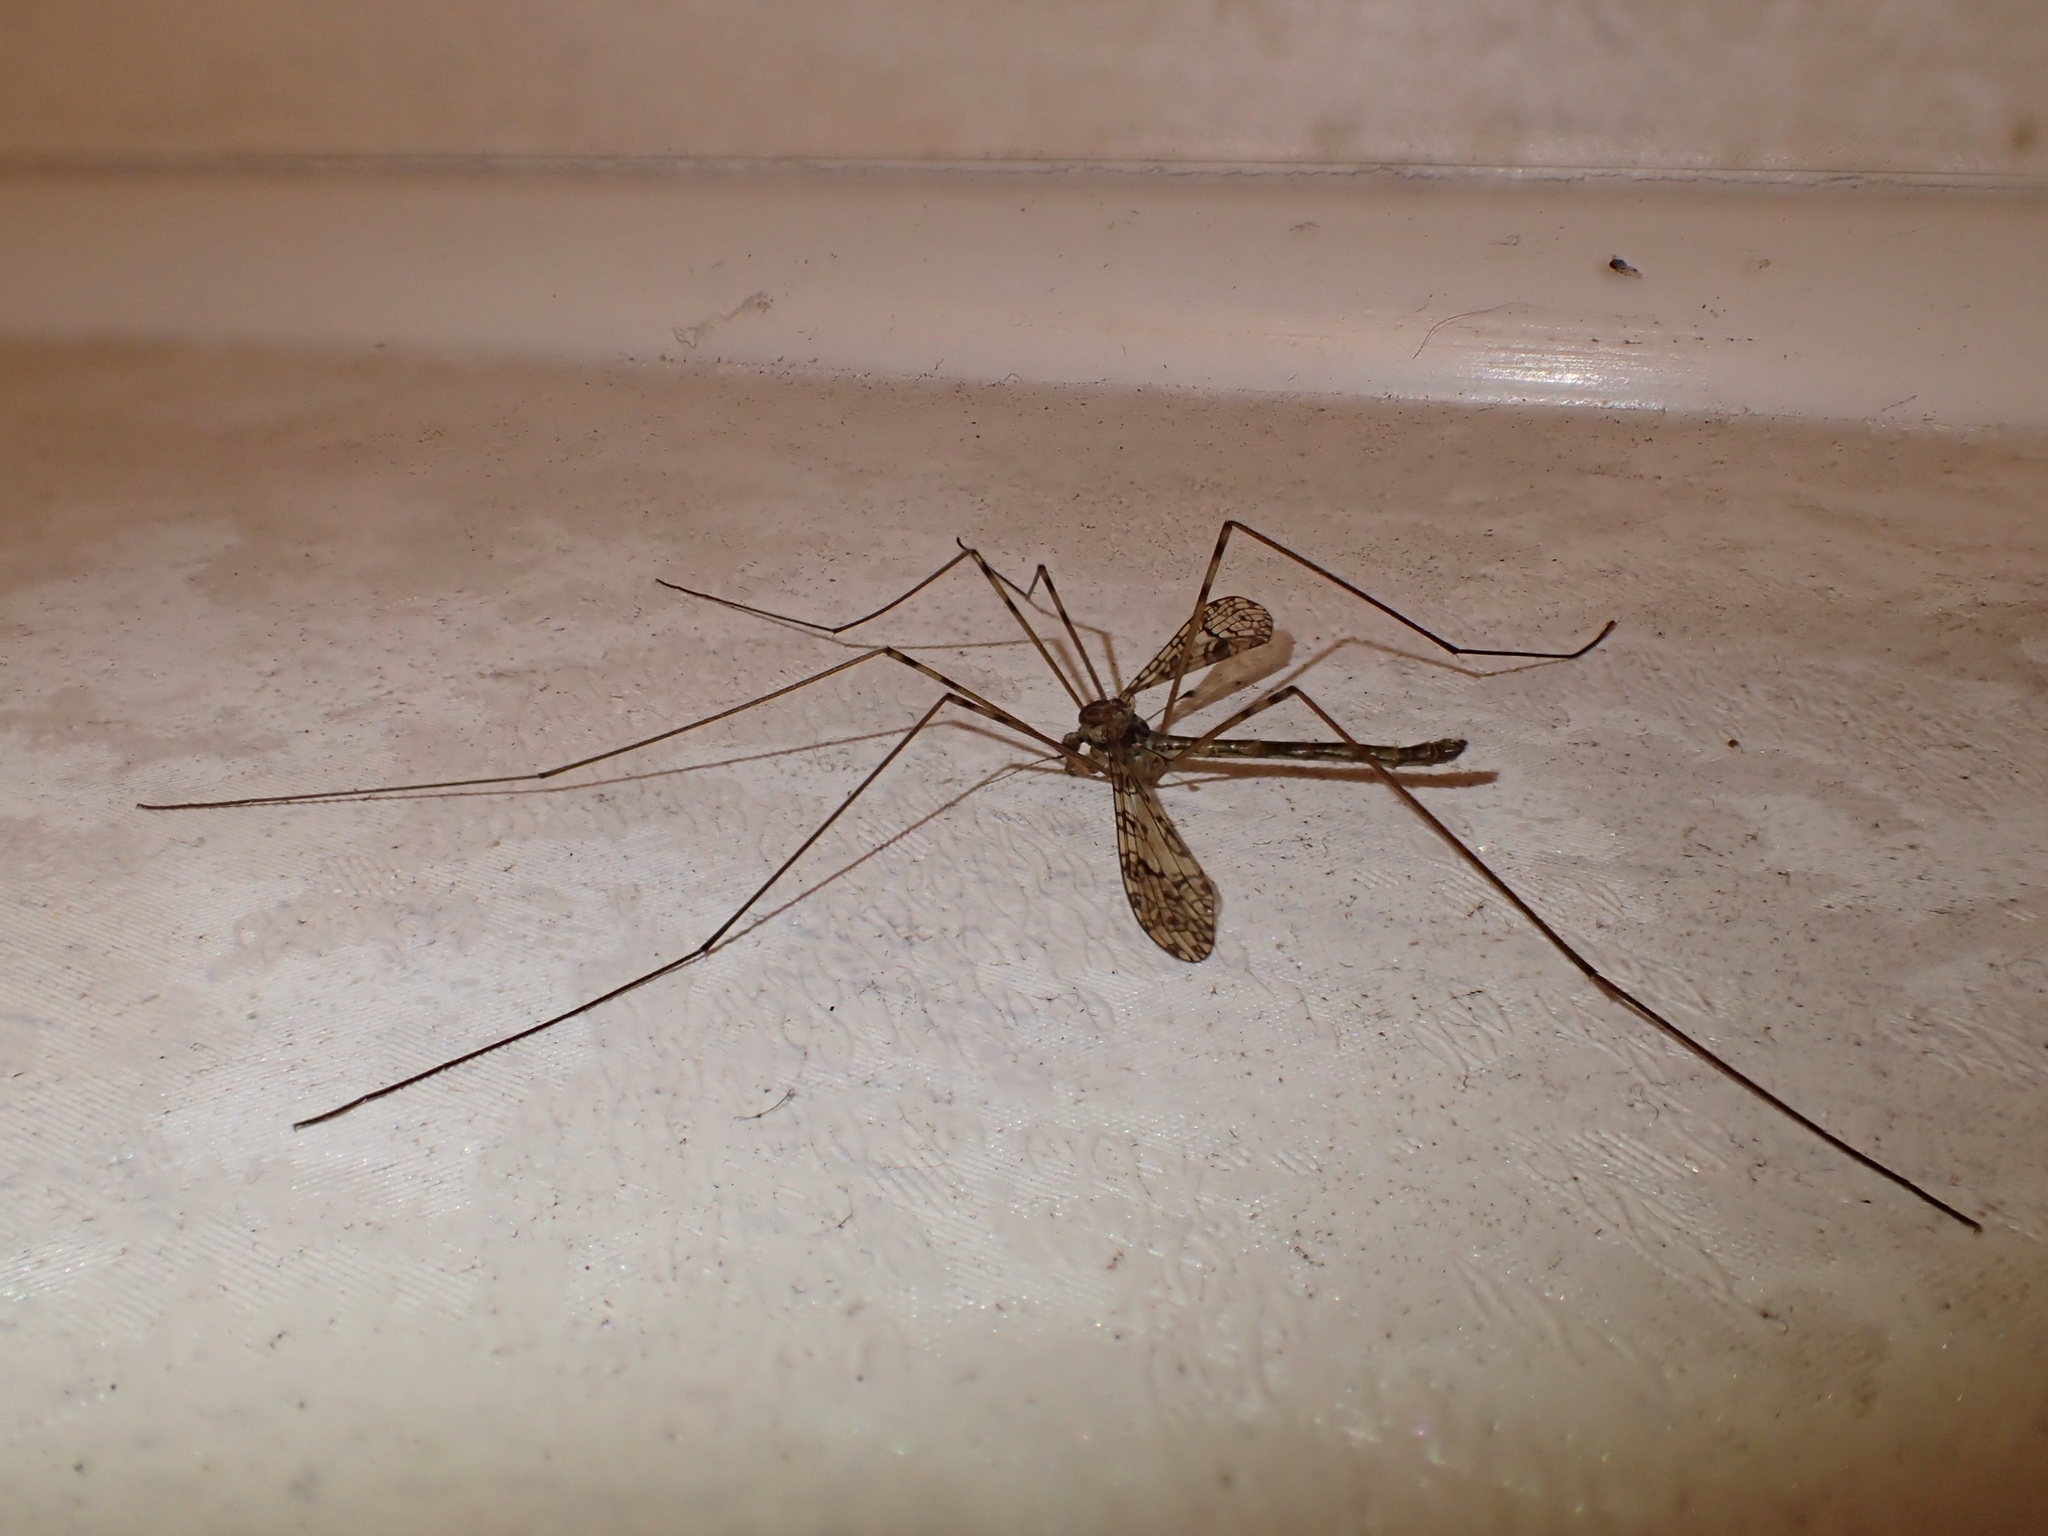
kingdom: Animalia
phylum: Arthropoda
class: Insecta
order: Diptera
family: Limoniidae
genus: Austrolimnophila
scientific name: Austrolimnophila argus
